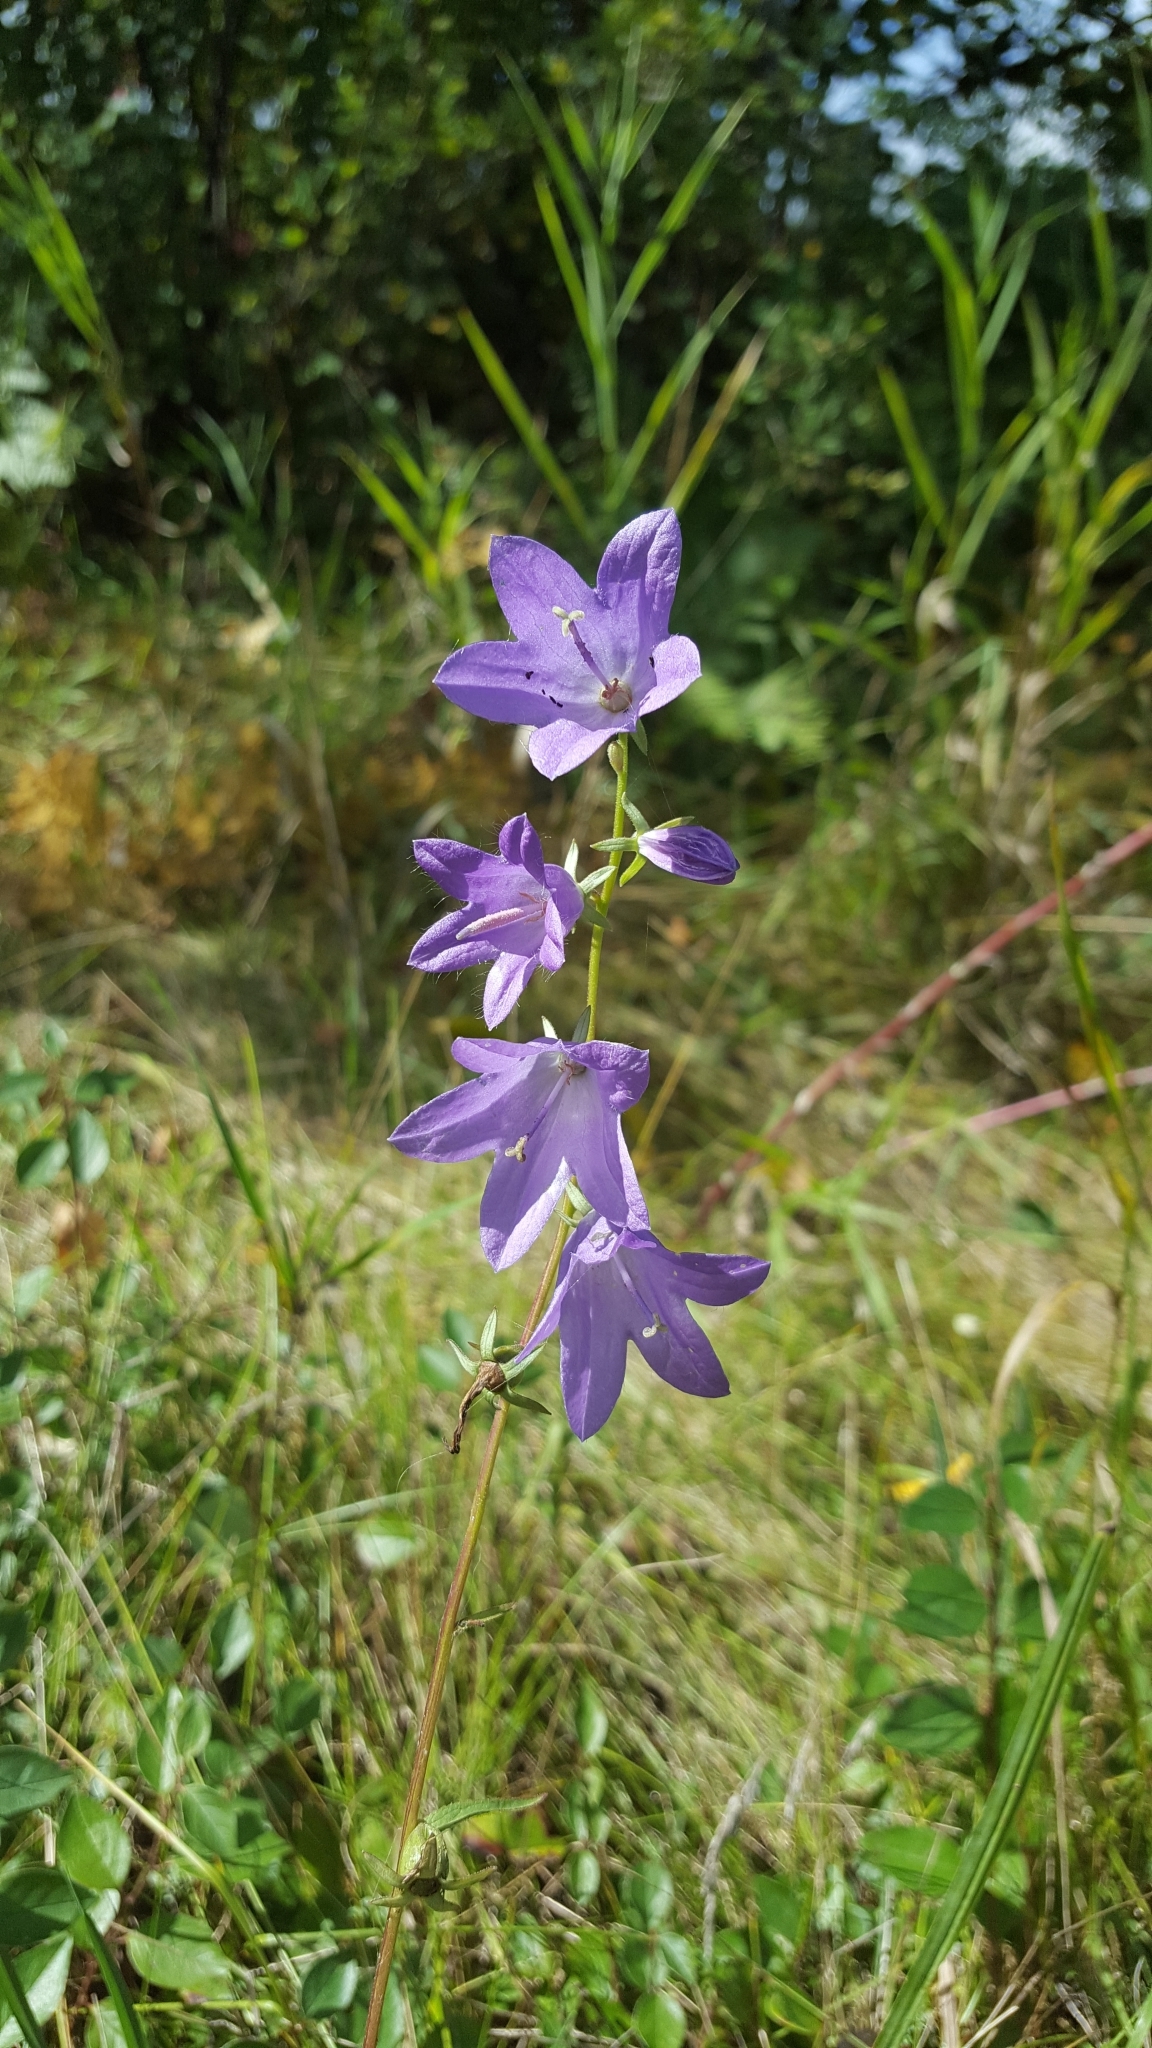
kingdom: Plantae
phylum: Tracheophyta
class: Magnoliopsida
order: Asterales
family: Campanulaceae
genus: Campanula
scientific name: Campanula rapunculoides
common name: Creeping bellflower
